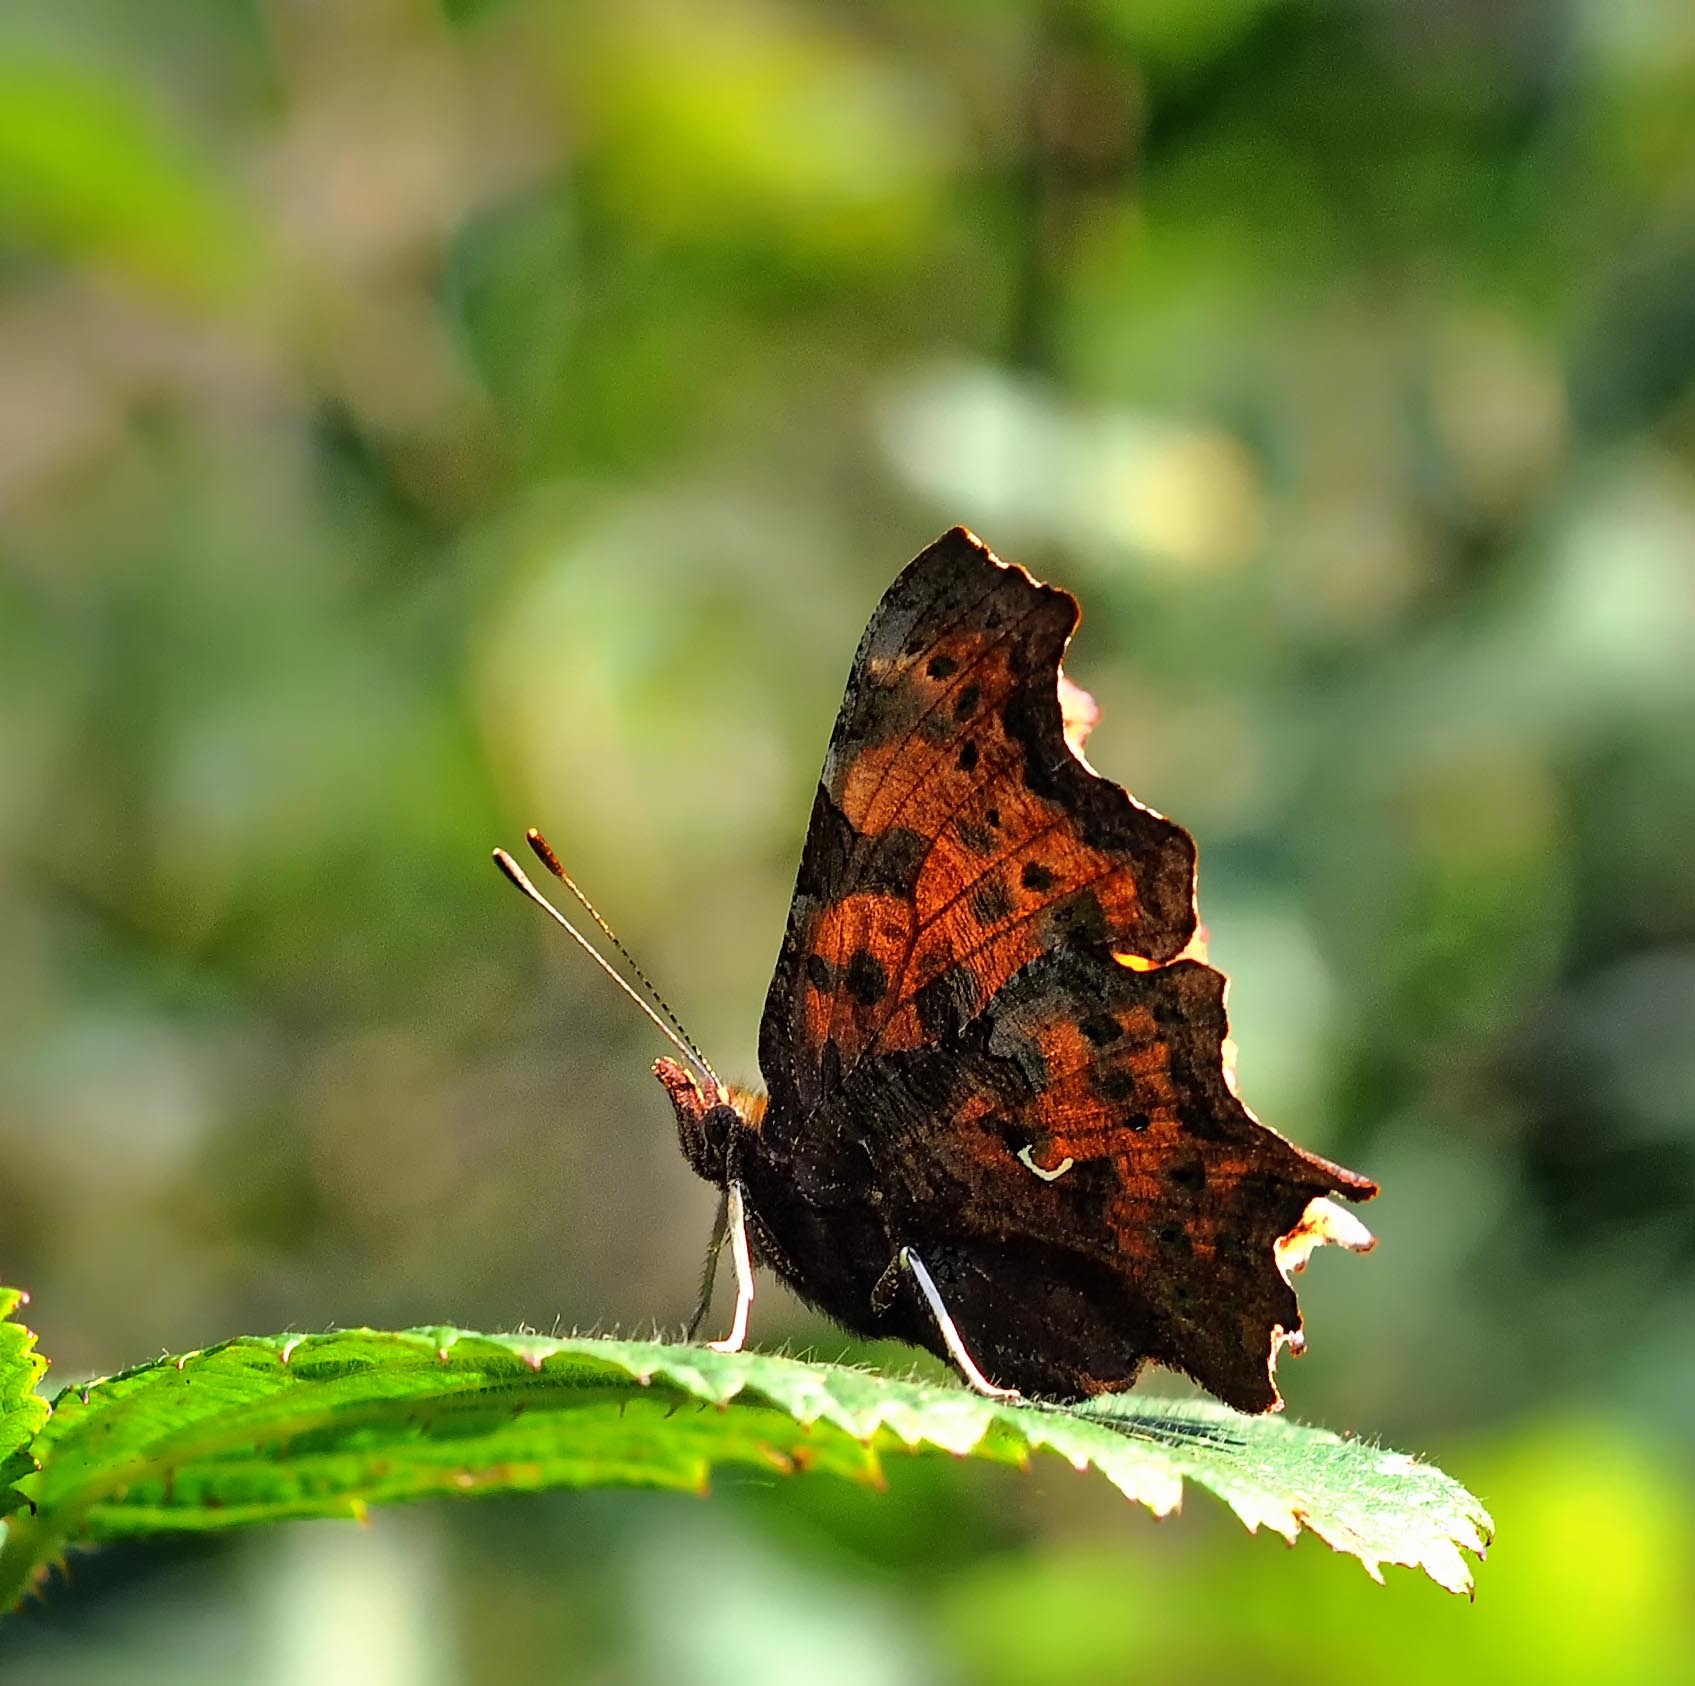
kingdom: Animalia
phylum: Arthropoda
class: Insecta
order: Lepidoptera
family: Nymphalidae
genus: Polygonia
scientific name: Polygonia c-album
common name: Comma
